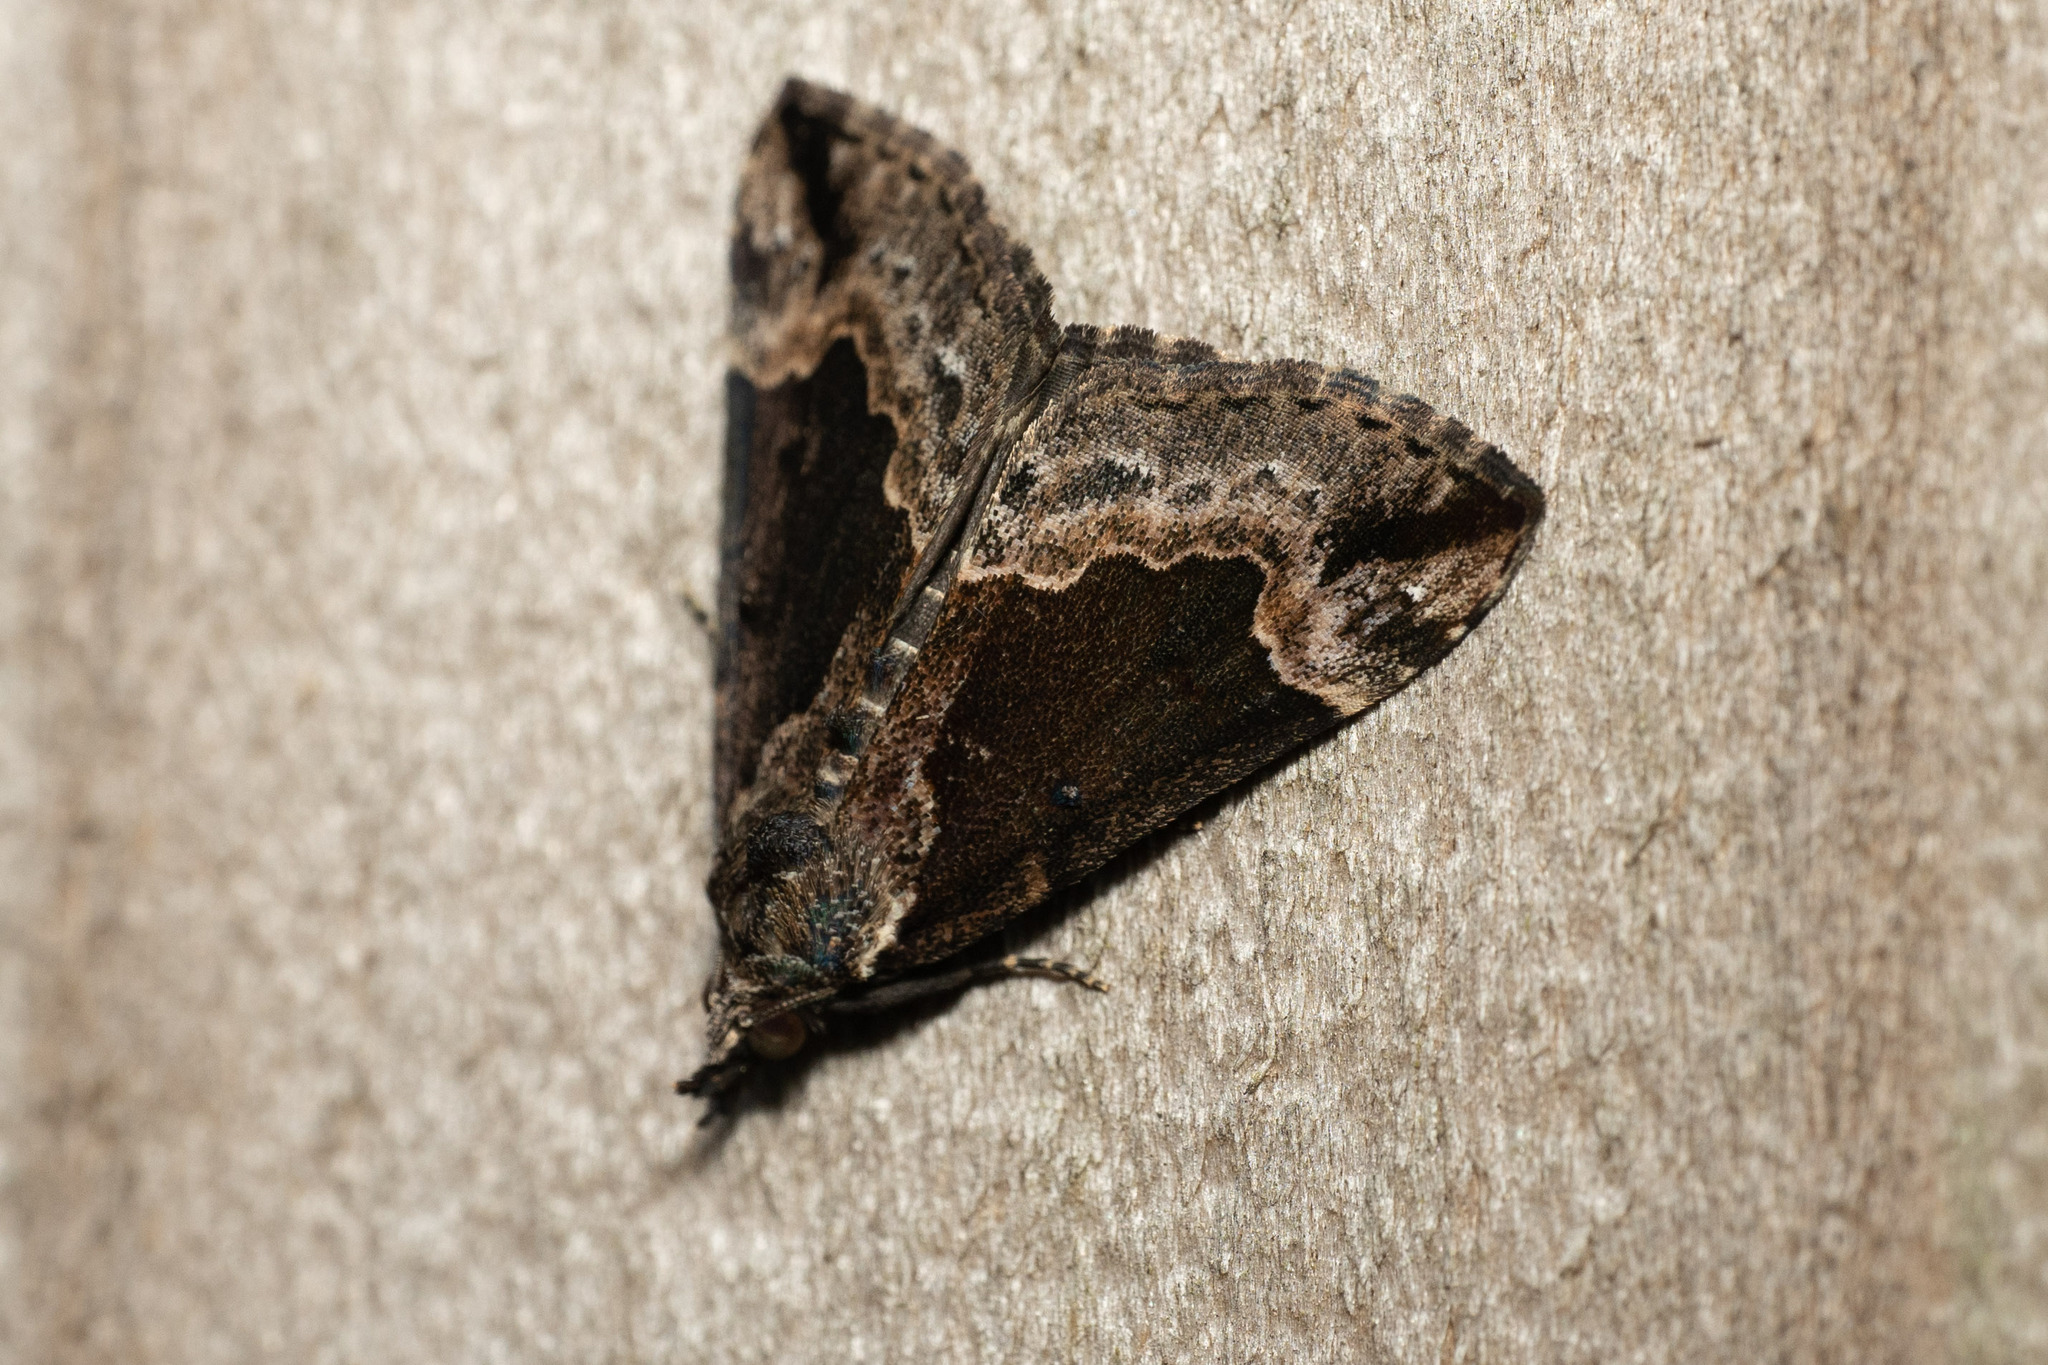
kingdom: Animalia
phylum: Arthropoda
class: Insecta
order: Lepidoptera
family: Erebidae
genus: Hypena
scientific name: Hypena baltimoralis
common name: Baltimore snout
